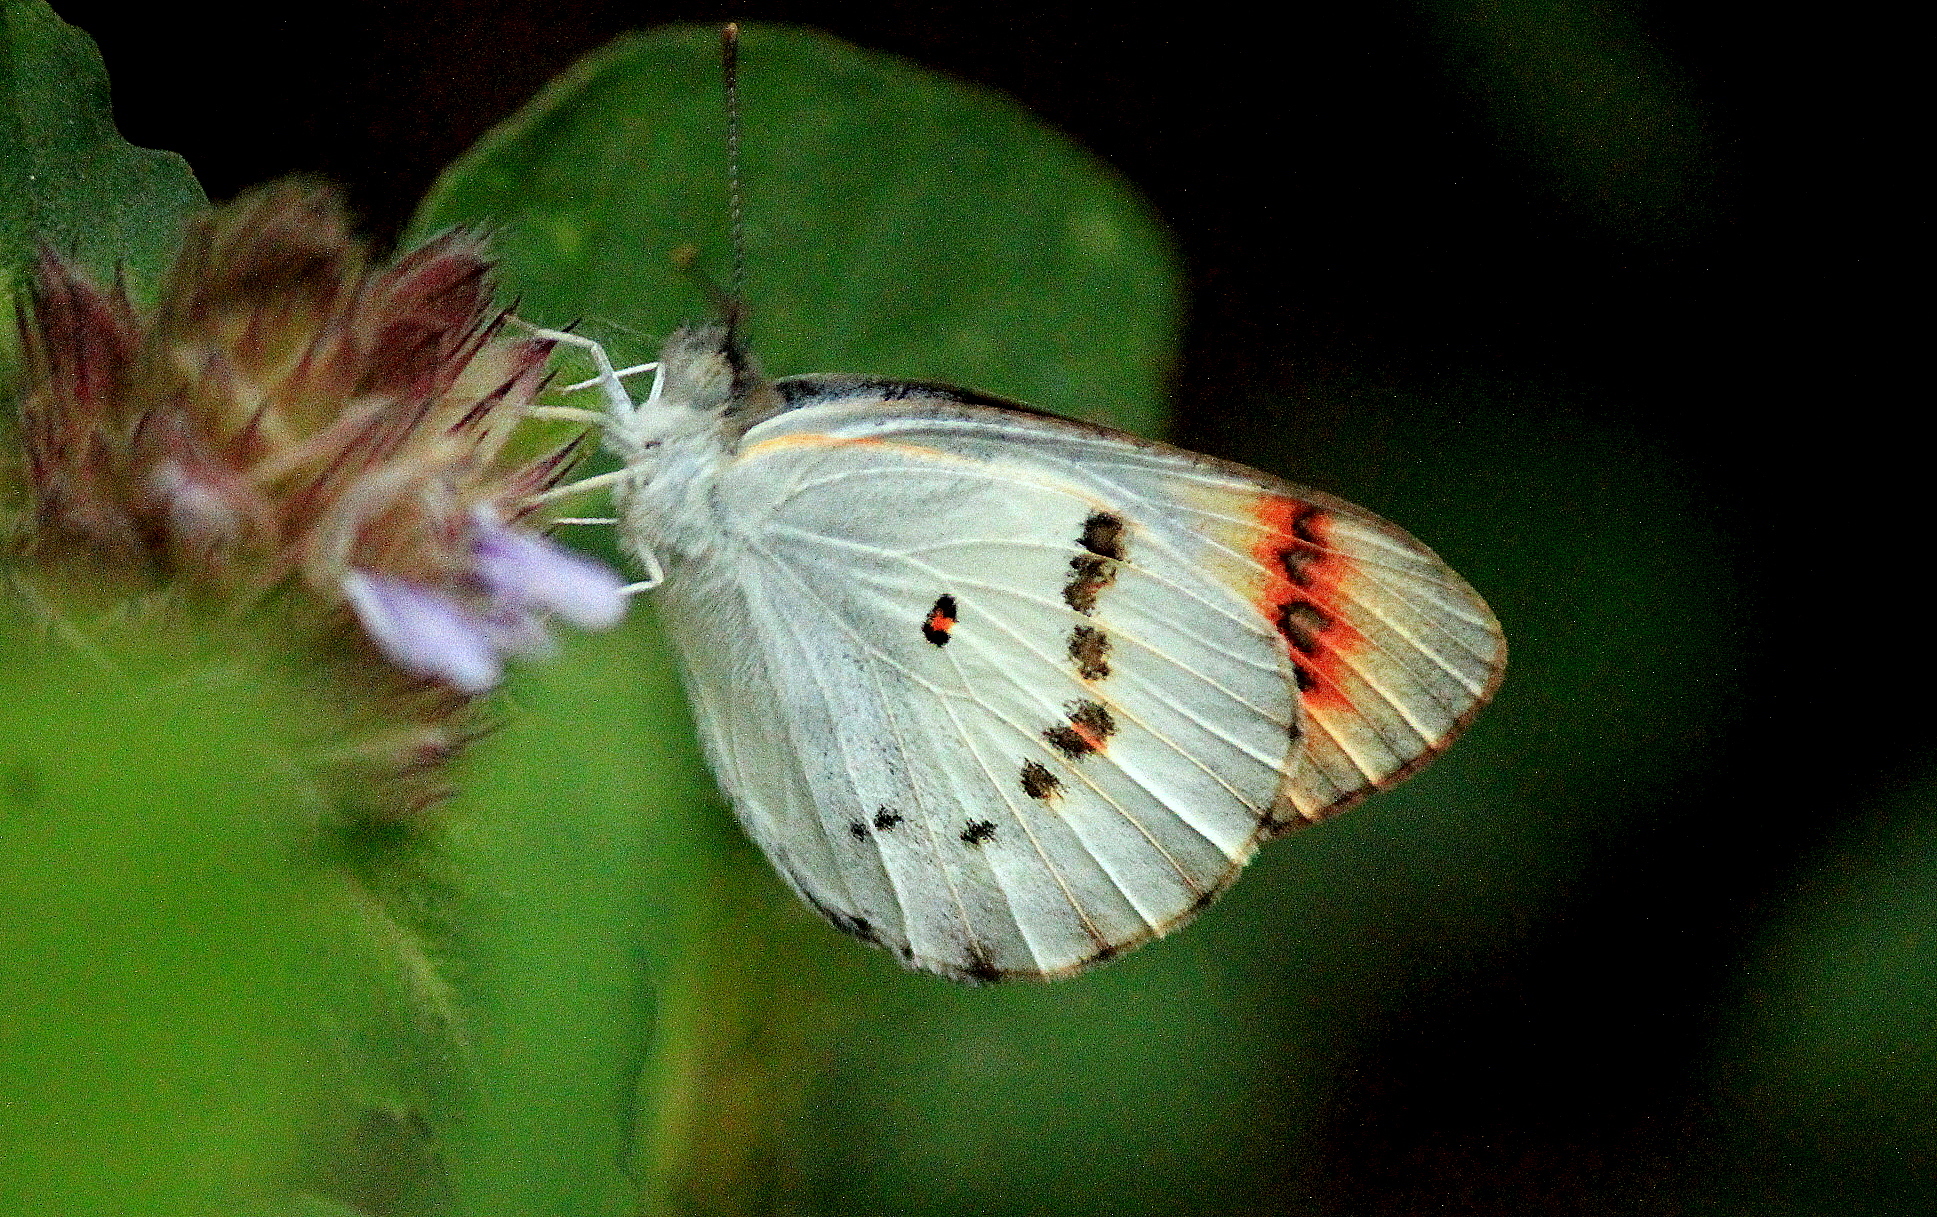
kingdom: Animalia
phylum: Arthropoda
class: Insecta
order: Lepidoptera
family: Pieridae
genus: Colotis
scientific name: Colotis danae
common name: Crimson tip
